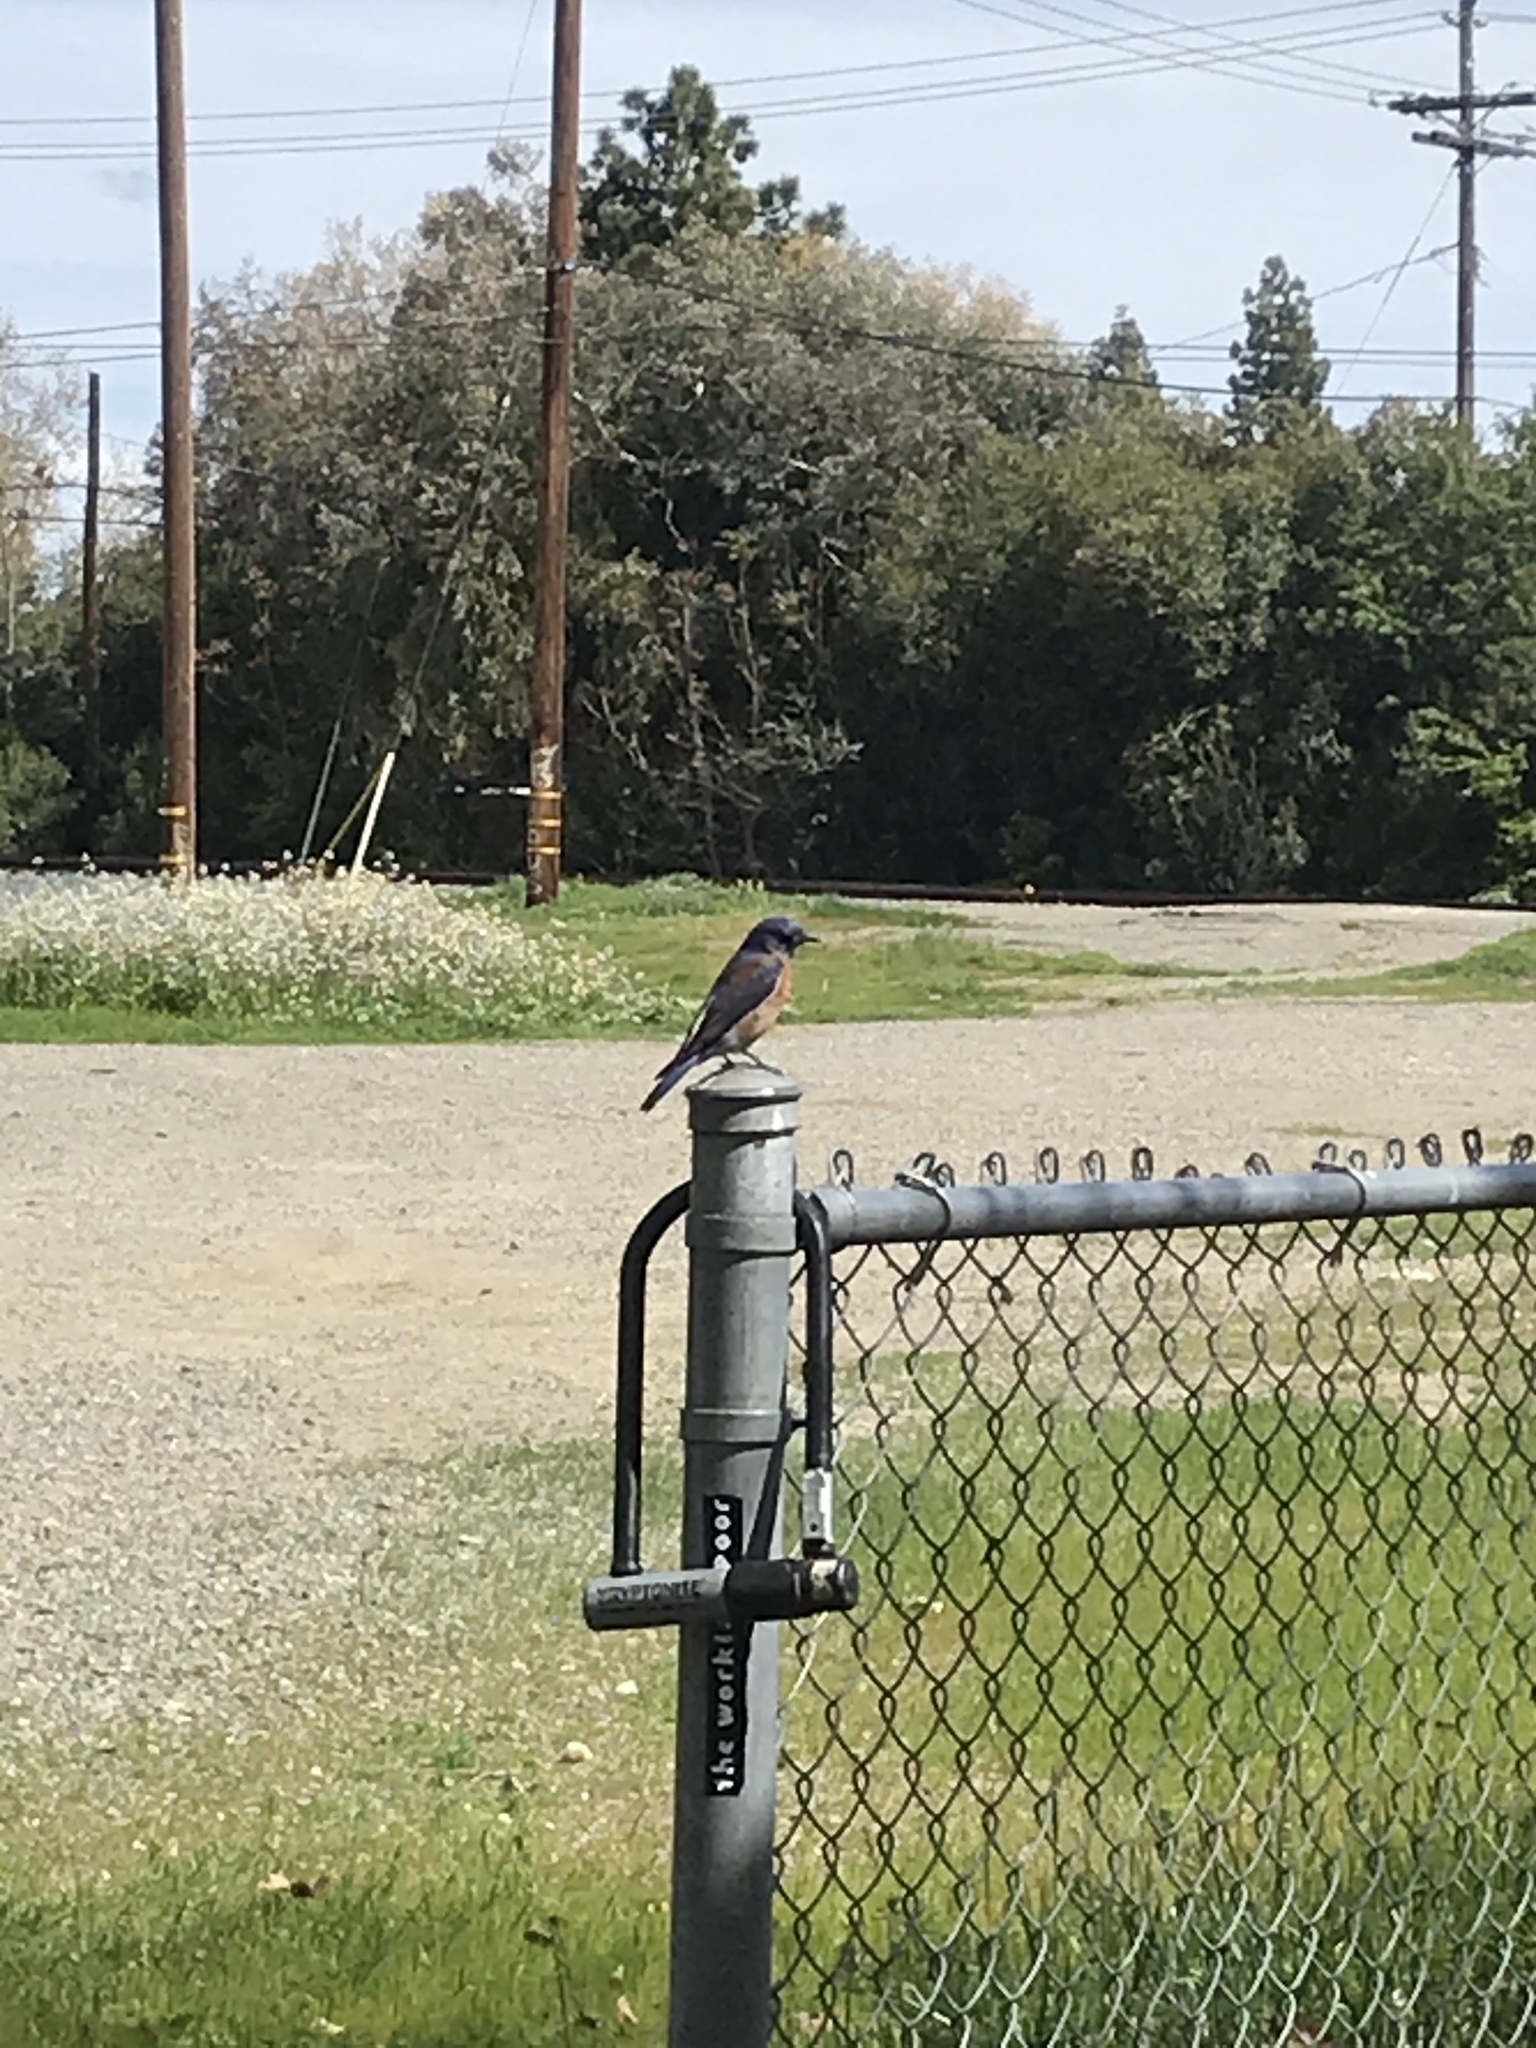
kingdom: Animalia
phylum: Chordata
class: Aves
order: Passeriformes
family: Turdidae
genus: Sialia
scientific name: Sialia mexicana
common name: Western bluebird
